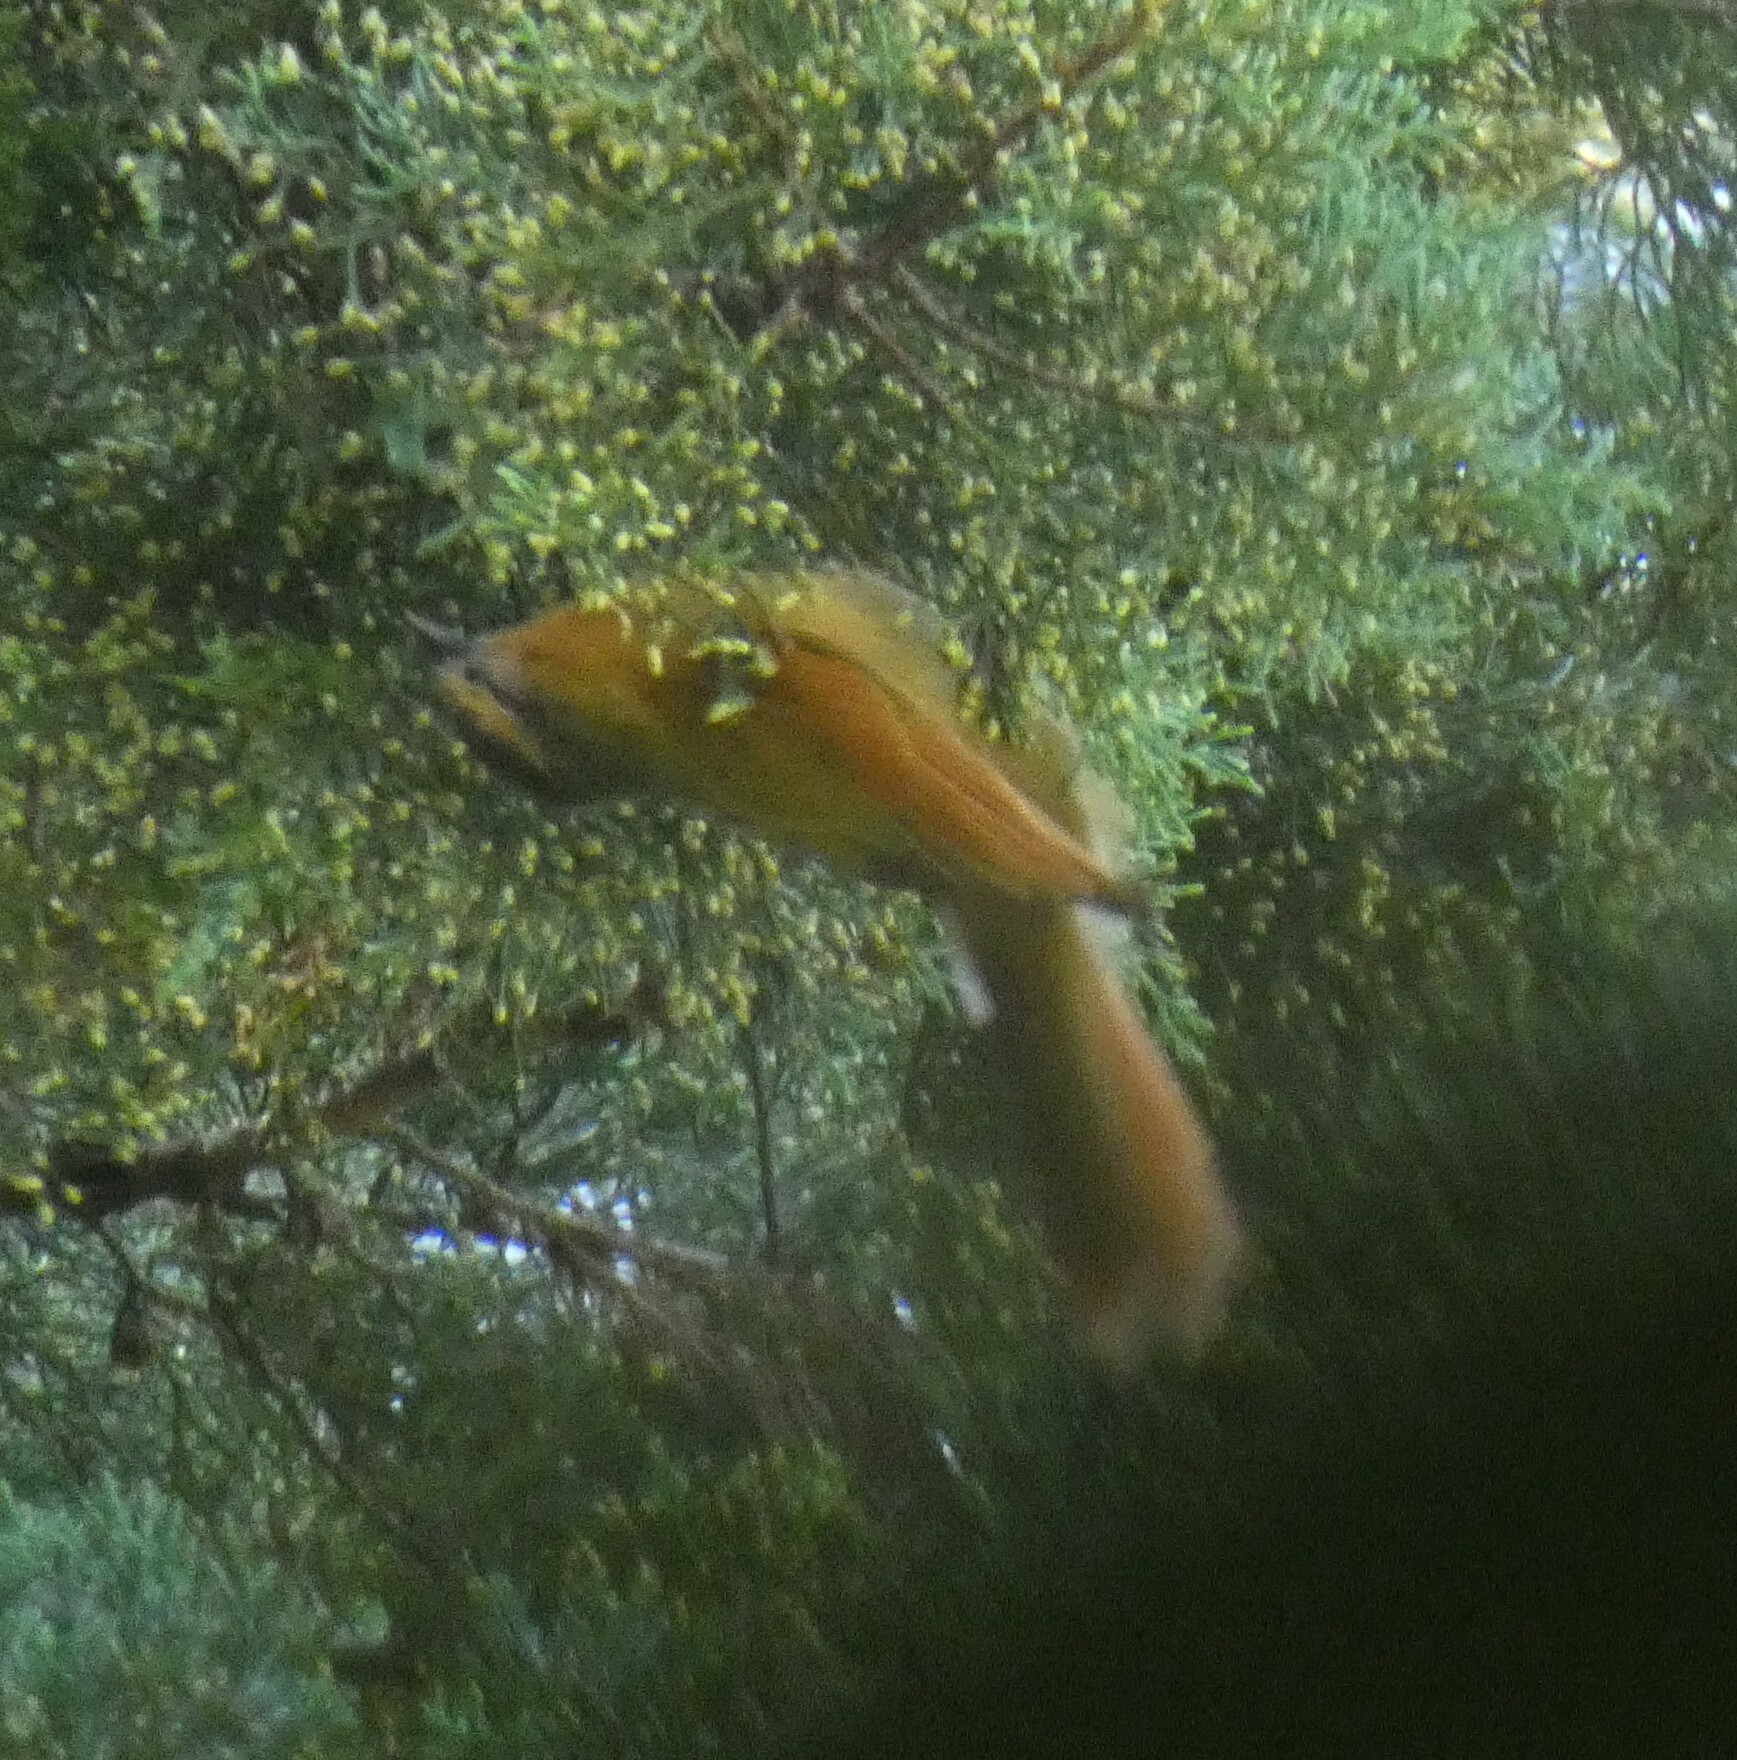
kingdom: Animalia
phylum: Chordata
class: Aves
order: Passeriformes
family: Furnariidae
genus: Philydor
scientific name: Philydor rufum
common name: Buff-fronted foliage-gleaner
